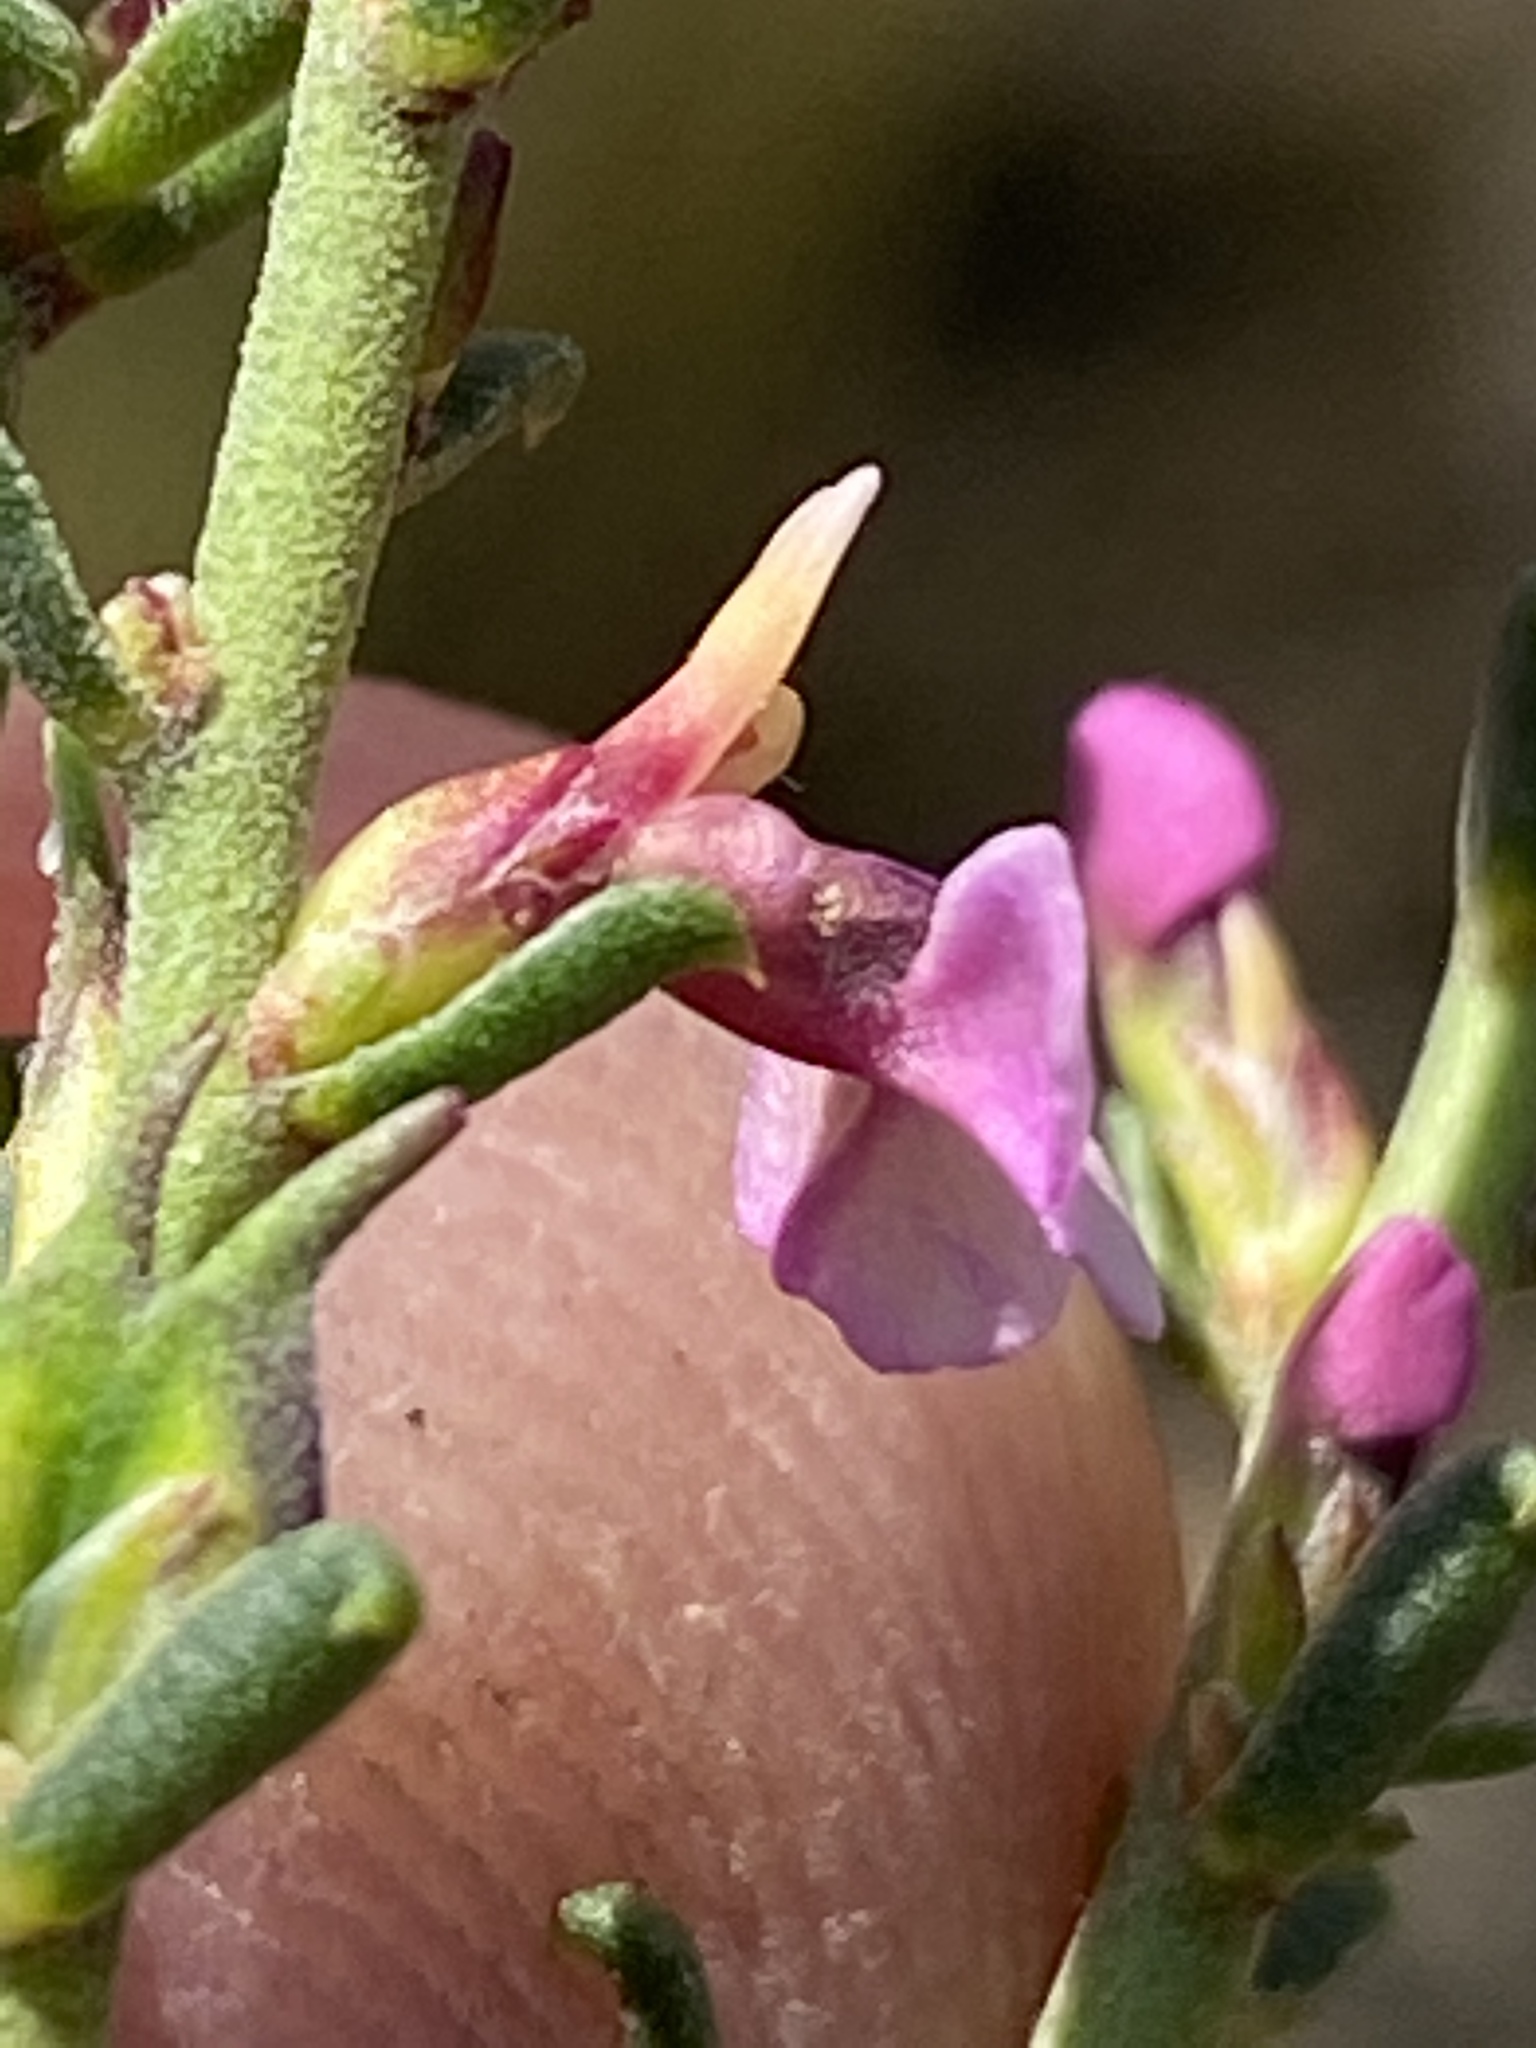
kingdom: Plantae
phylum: Tracheophyta
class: Magnoliopsida
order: Fabales
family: Polygalaceae
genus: Muraltia
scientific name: Muraltia dispersa
